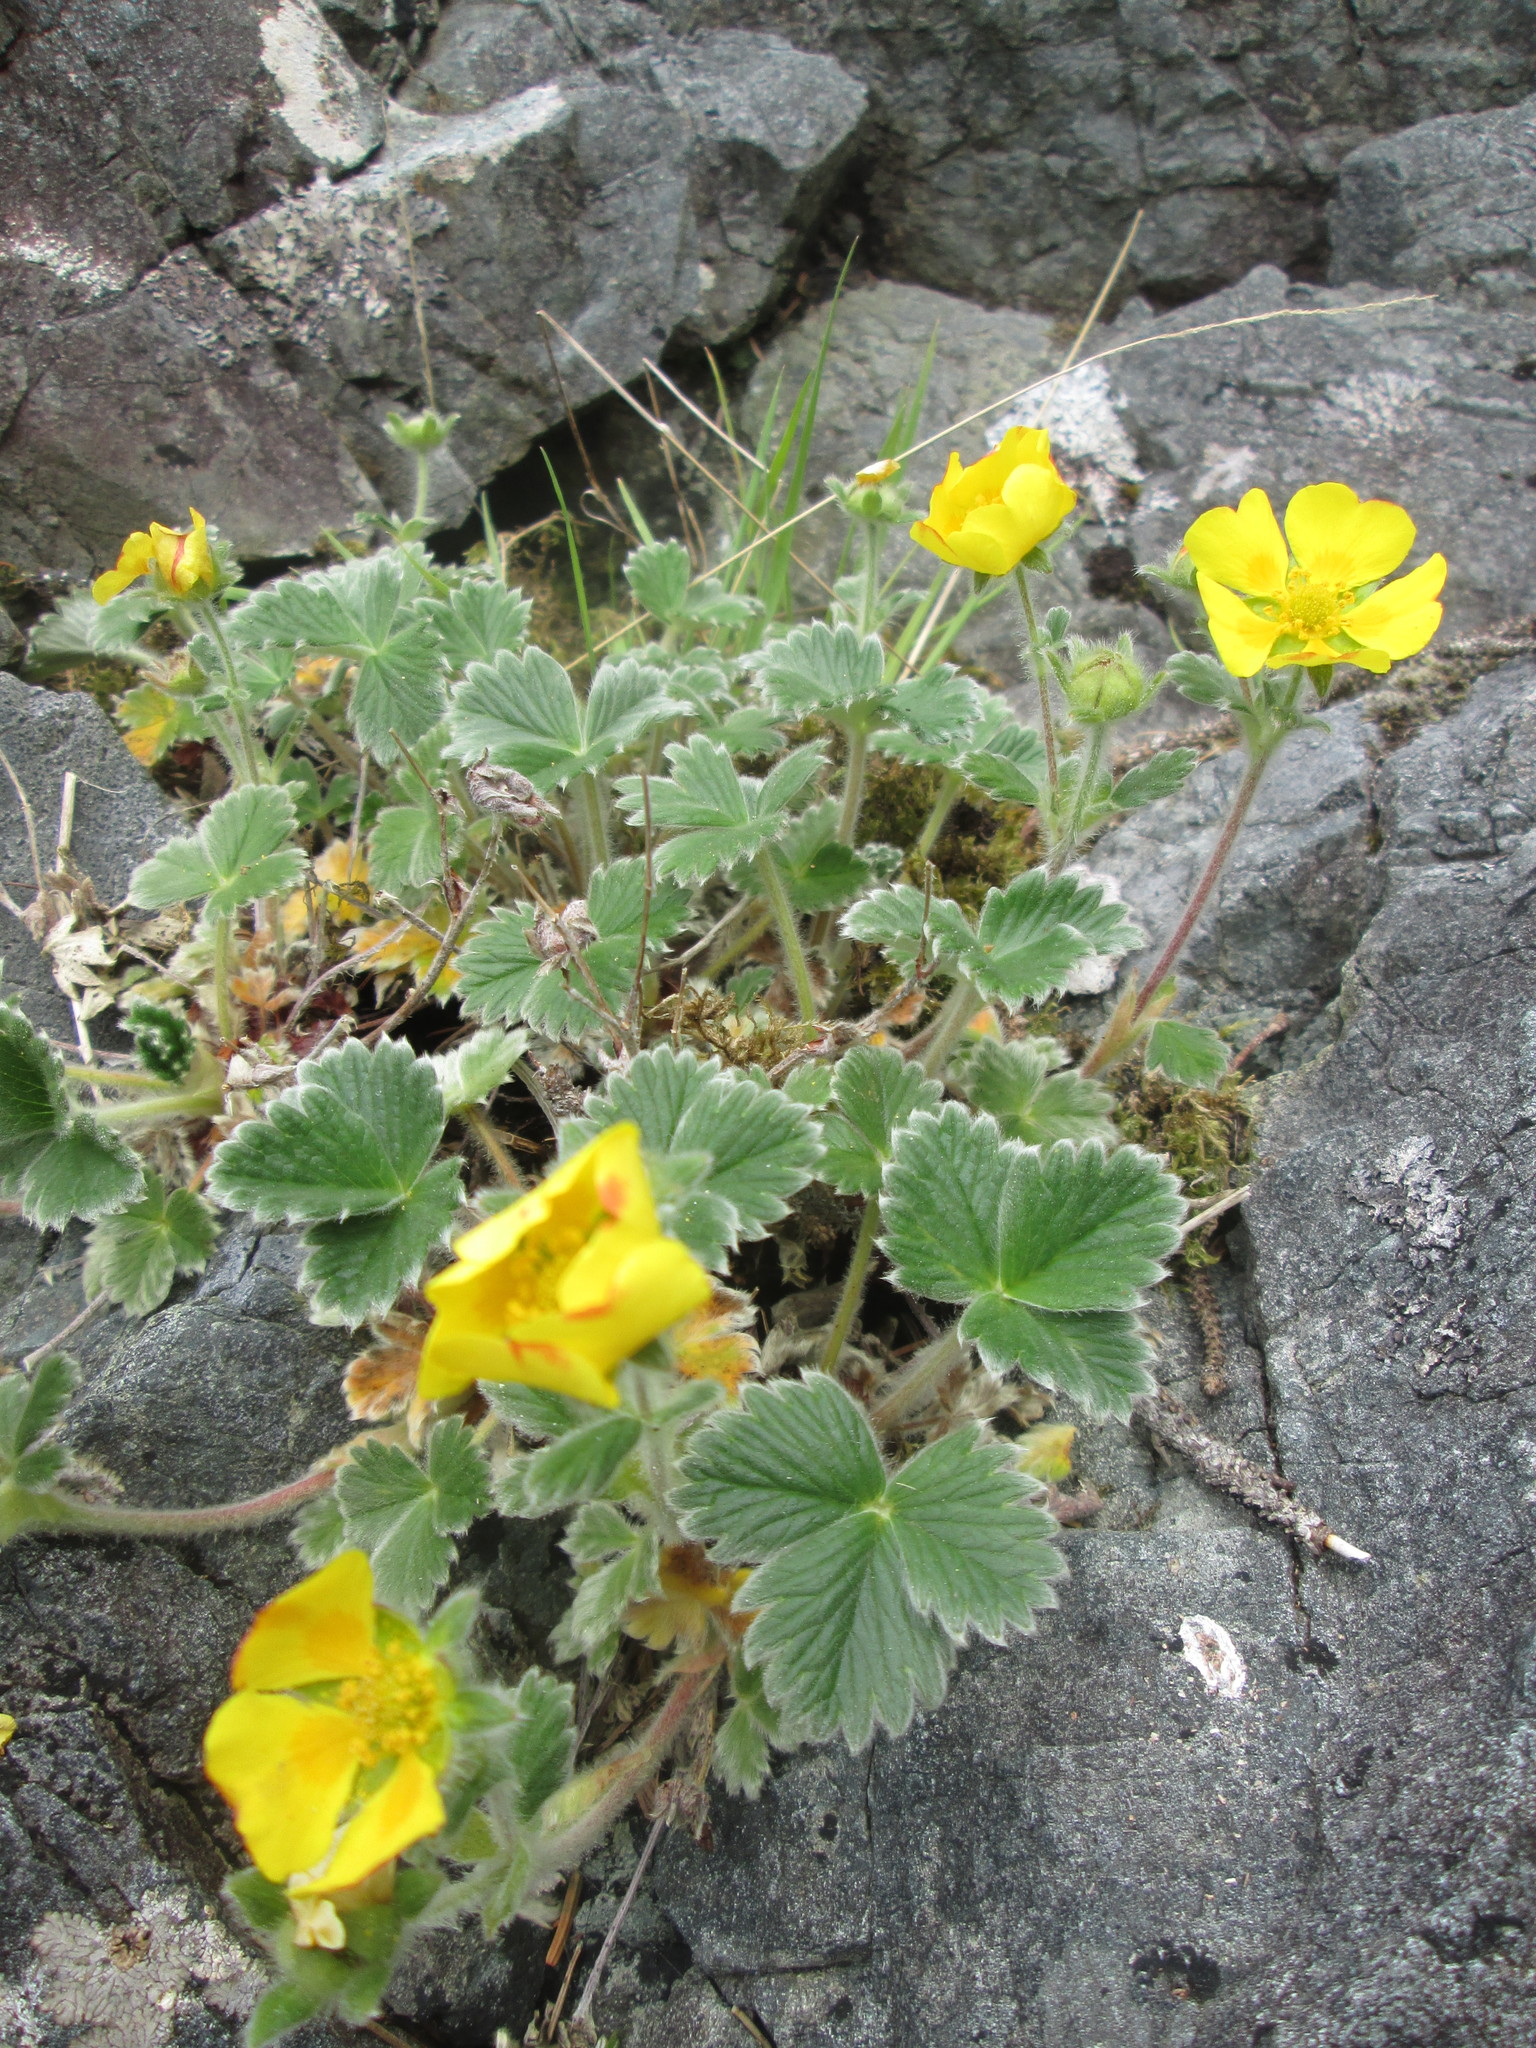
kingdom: Plantae
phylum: Tracheophyta
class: Magnoliopsida
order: Rosales
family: Rosaceae
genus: Potentilla
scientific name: Potentilla villosa
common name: Northern cinquefoil
